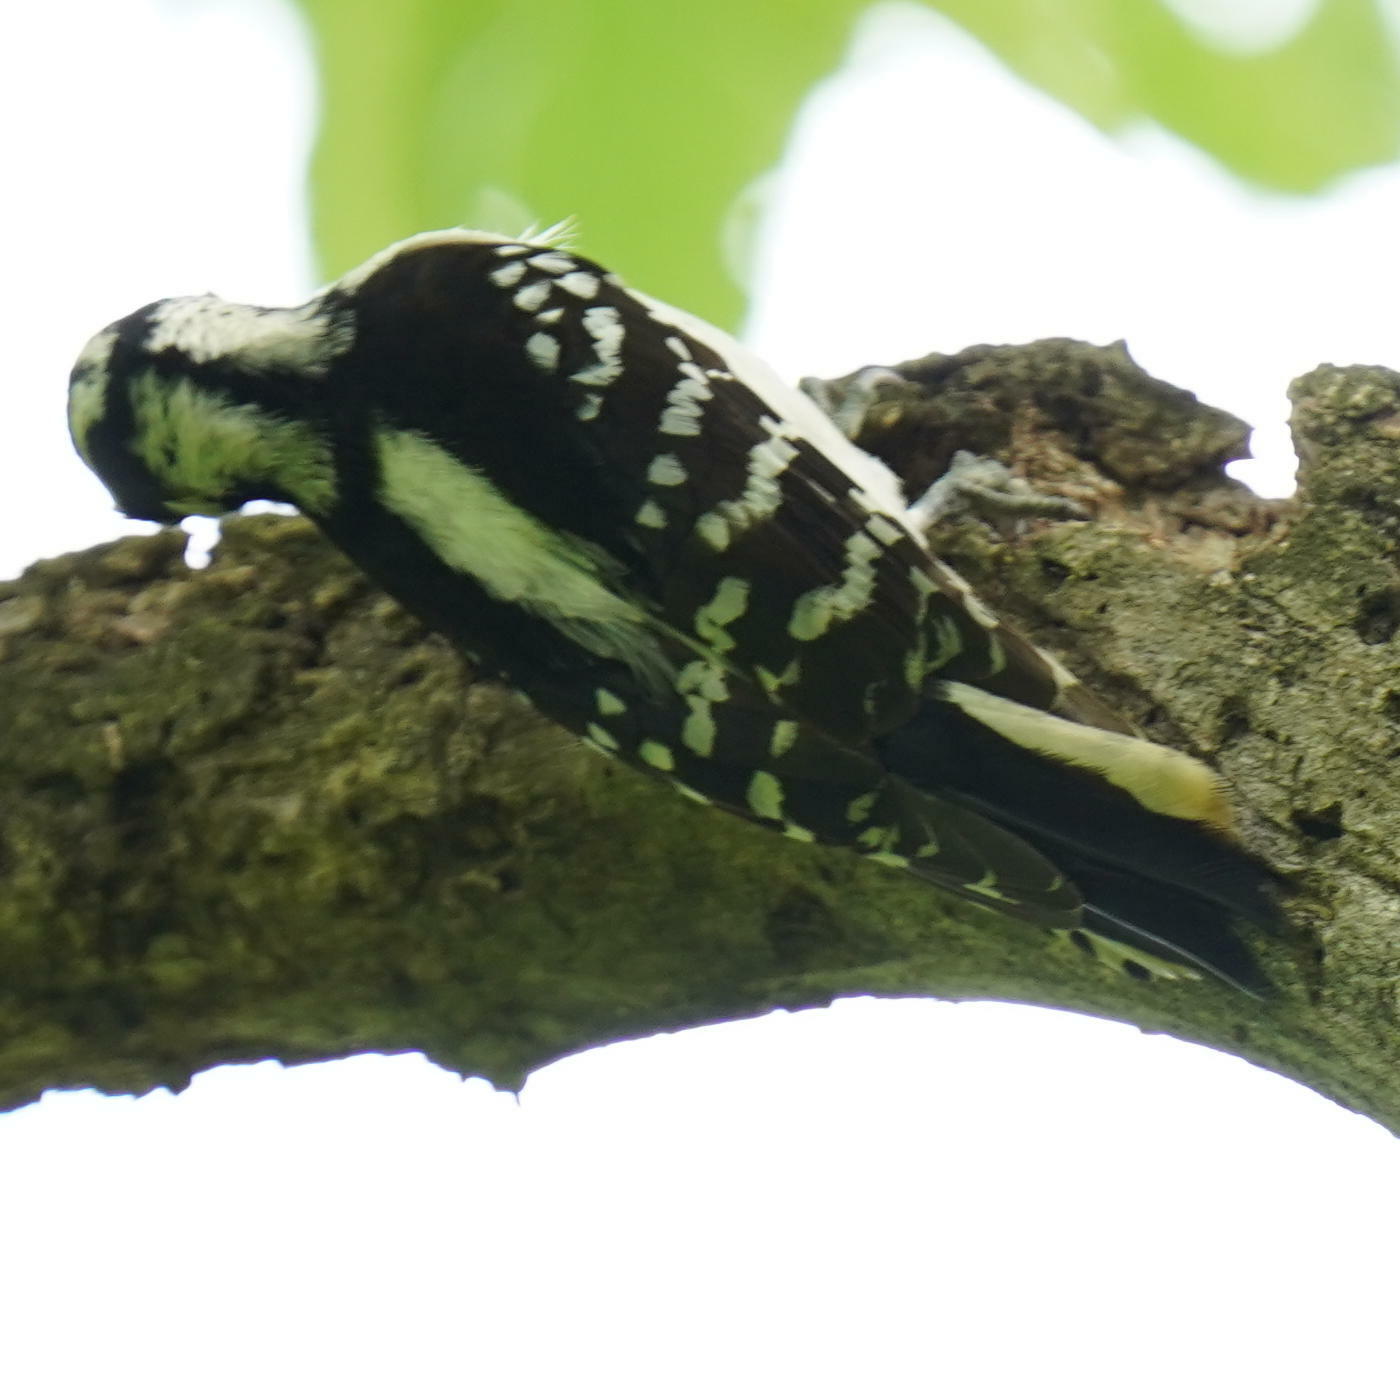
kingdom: Animalia
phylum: Chordata
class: Aves
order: Piciformes
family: Picidae
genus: Dryobates
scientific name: Dryobates pubescens
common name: Downy woodpecker
